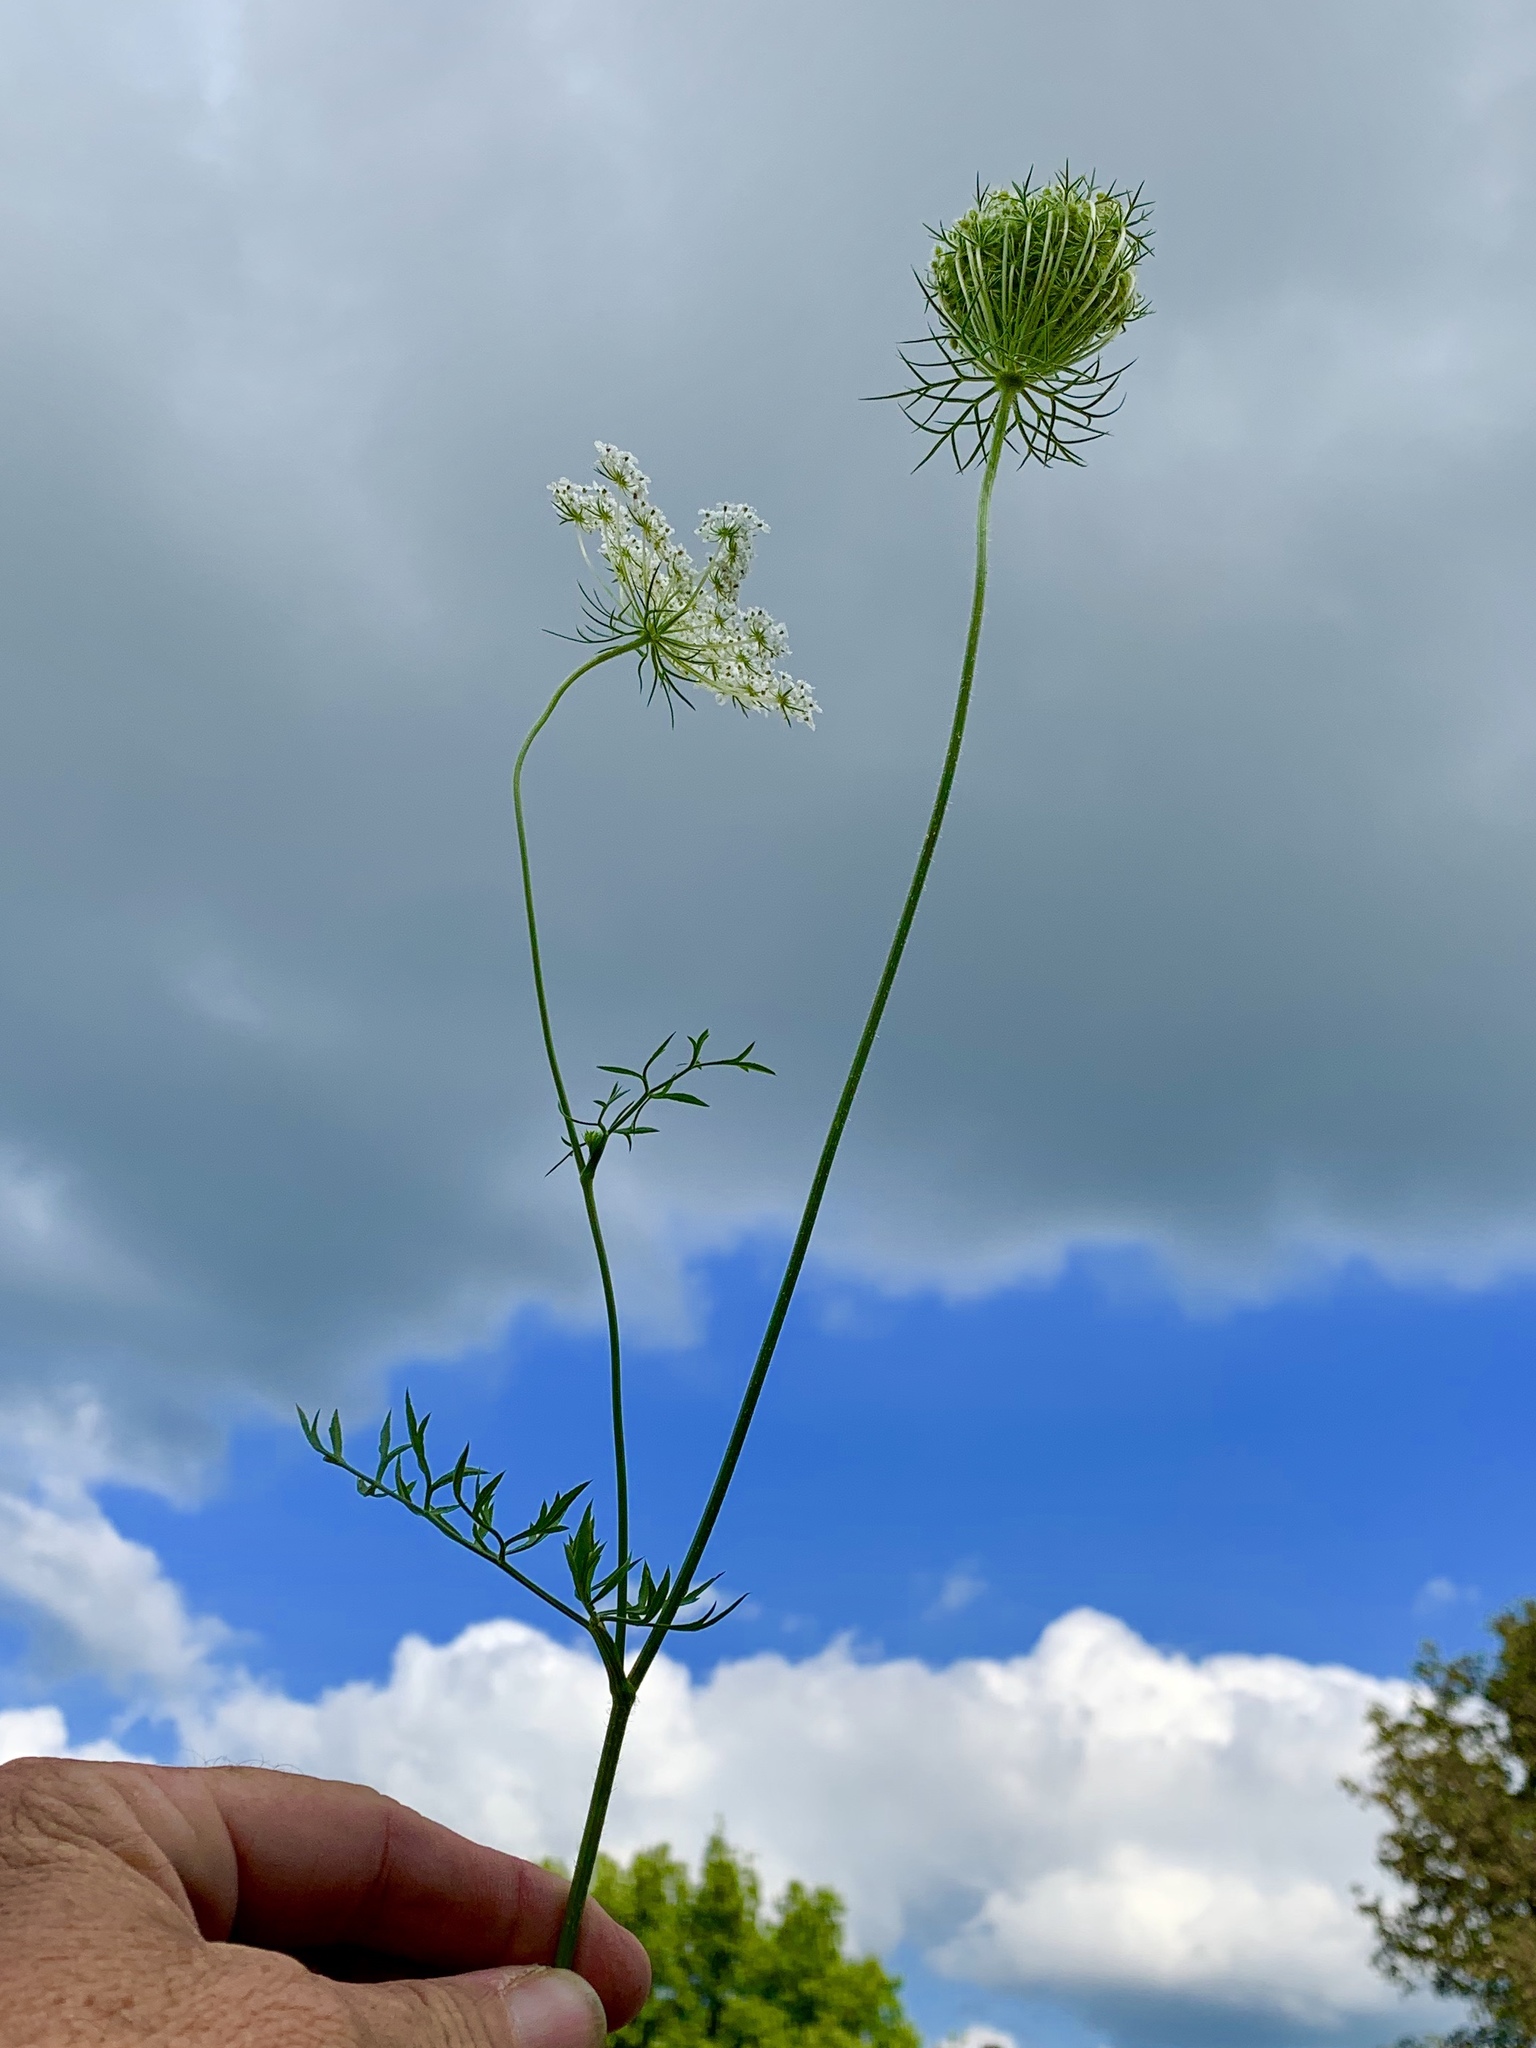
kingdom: Plantae
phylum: Tracheophyta
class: Magnoliopsida
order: Apiales
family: Apiaceae
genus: Daucus
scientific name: Daucus carota
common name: Wild carrot
